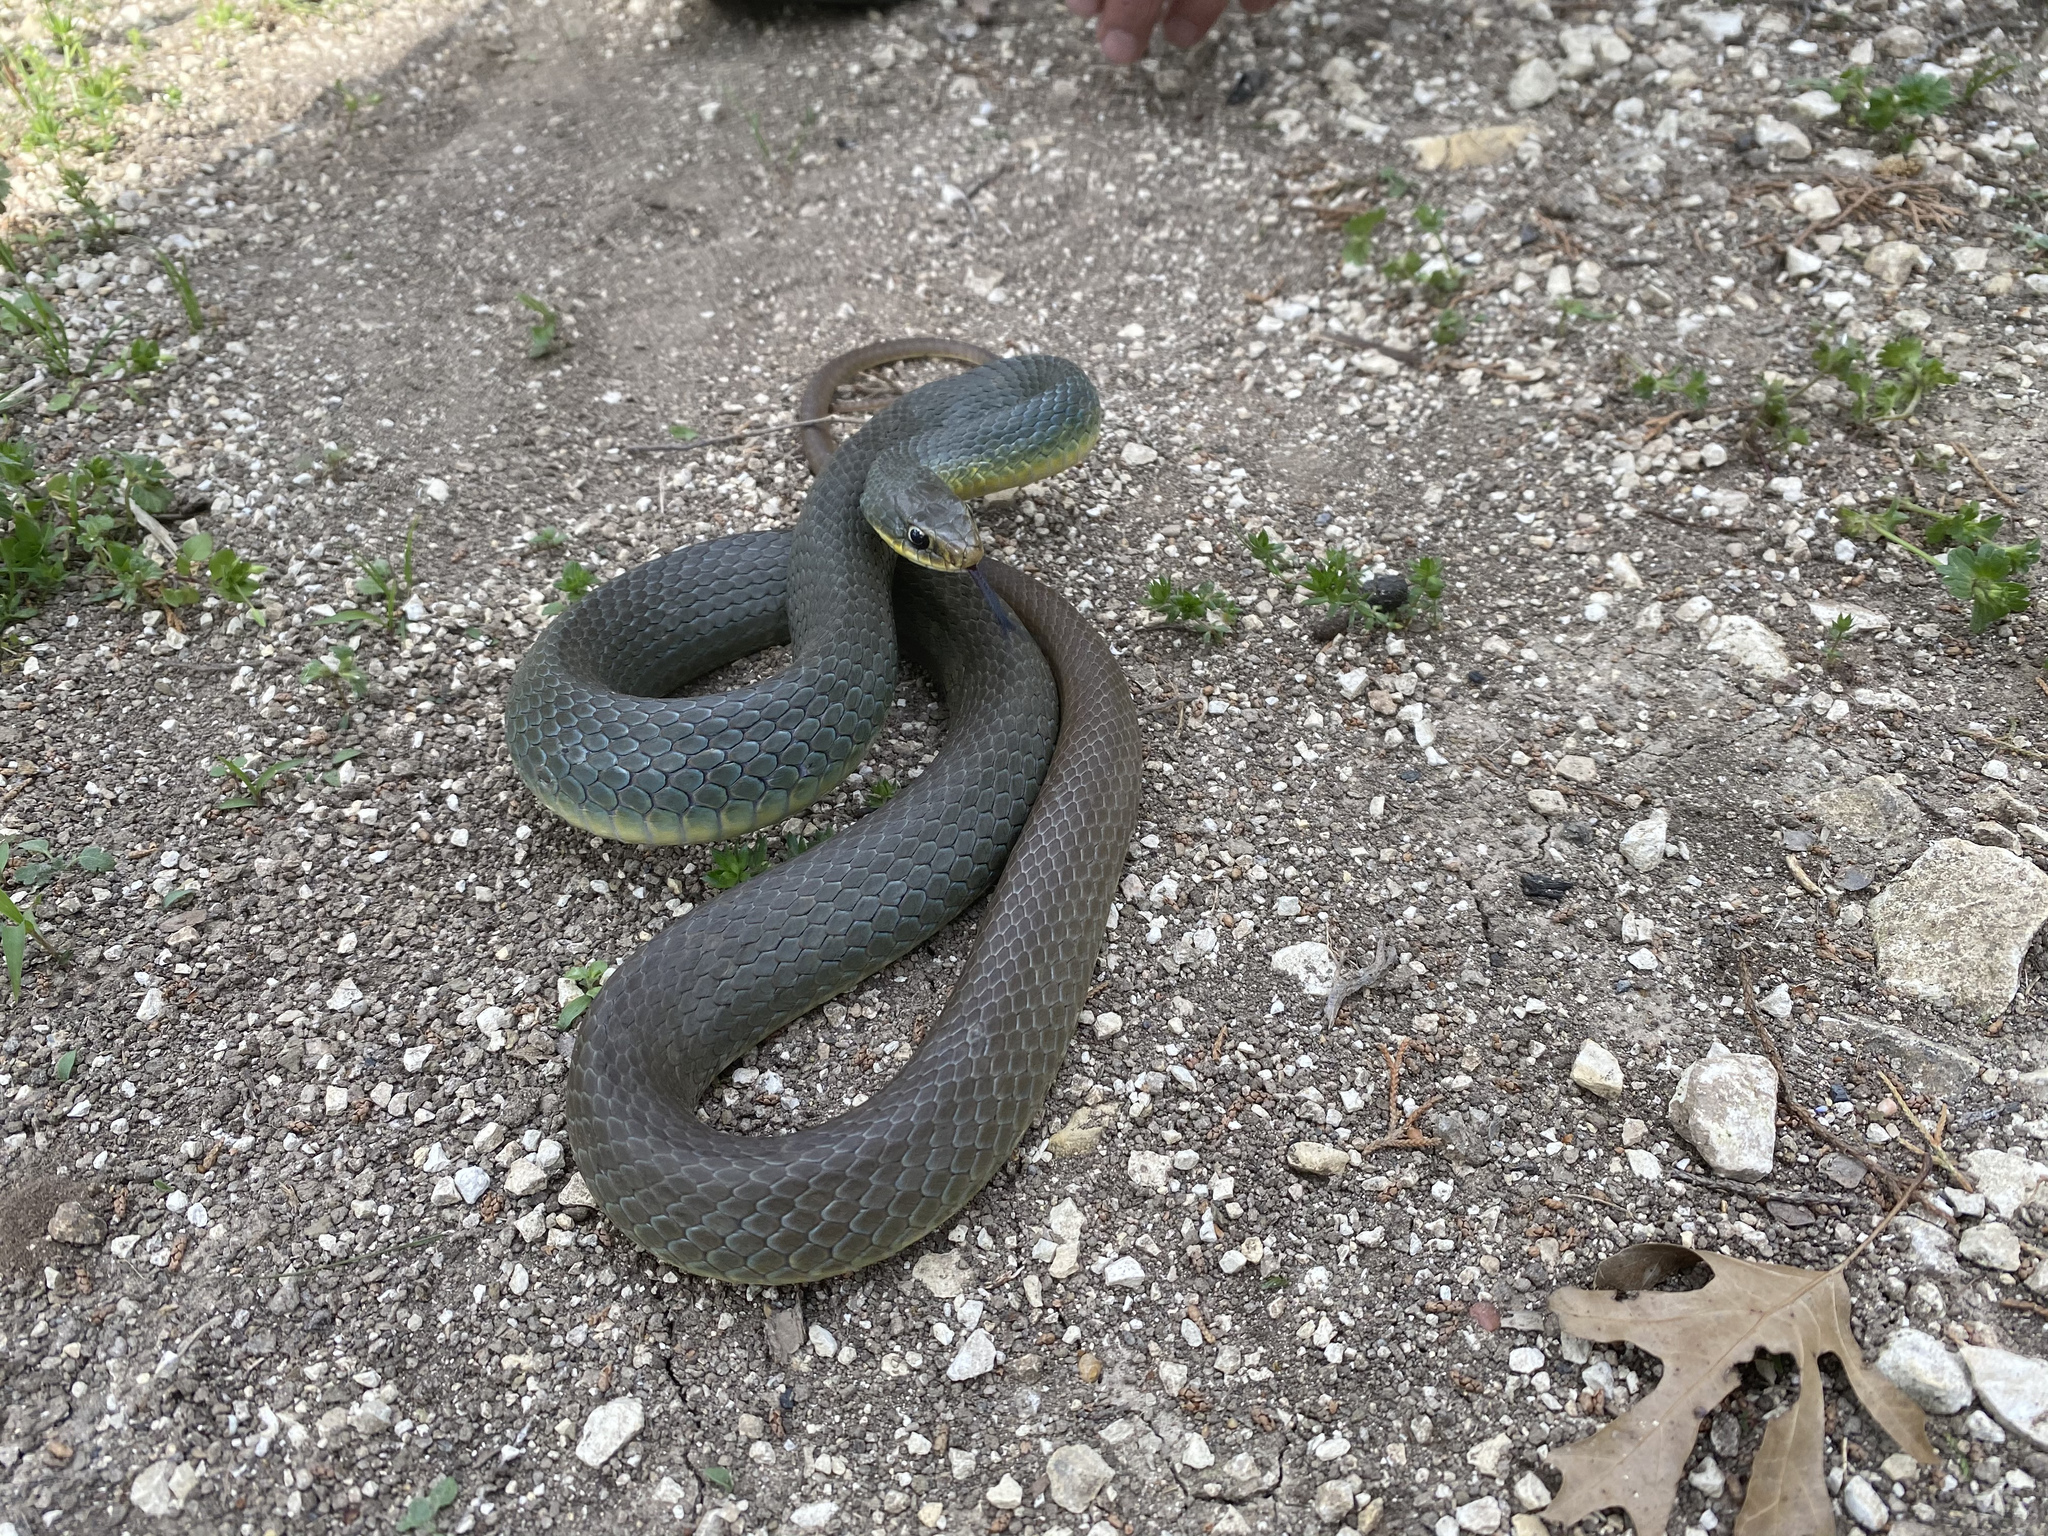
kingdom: Animalia
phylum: Chordata
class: Squamata
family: Colubridae
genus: Coluber
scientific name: Coluber constrictor
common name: Eastern racer
